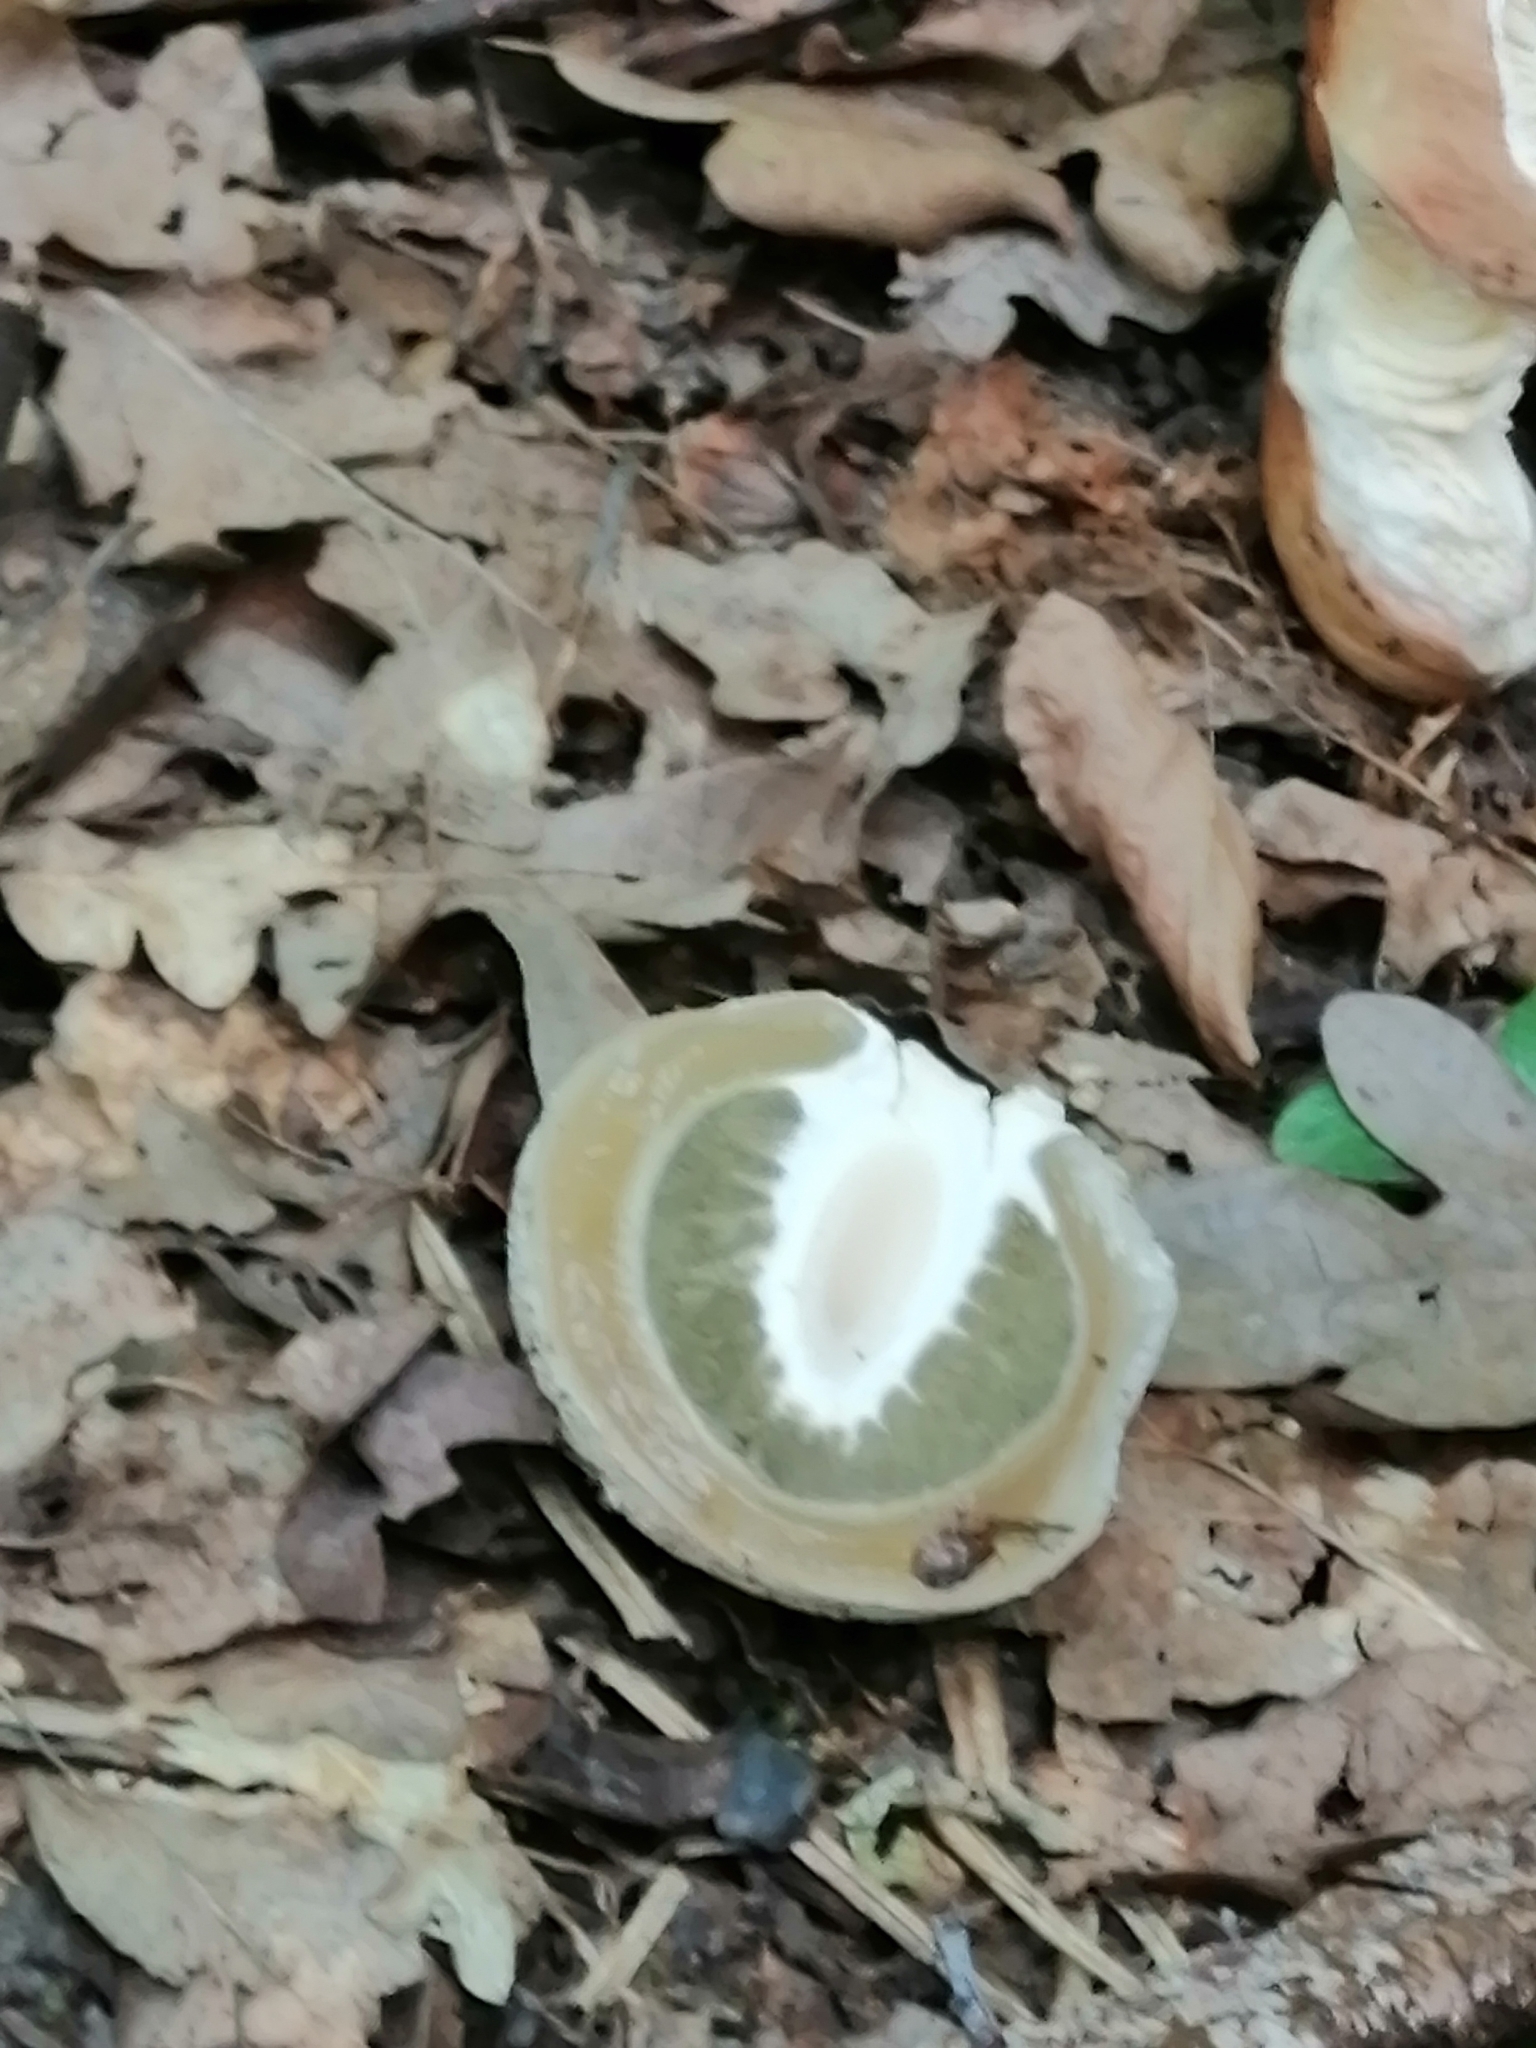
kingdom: Fungi
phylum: Basidiomycota
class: Agaricomycetes
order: Phallales
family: Phallaceae
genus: Phallus
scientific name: Phallus impudicus
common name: Common stinkhorn
